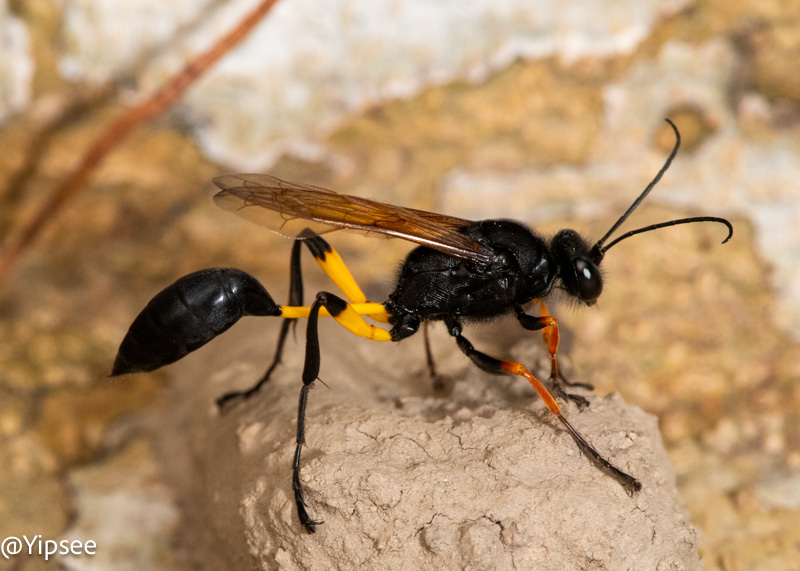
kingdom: Animalia
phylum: Arthropoda
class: Insecta
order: Hymenoptera
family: Sphecidae
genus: Sceliphron
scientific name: Sceliphron javanum
